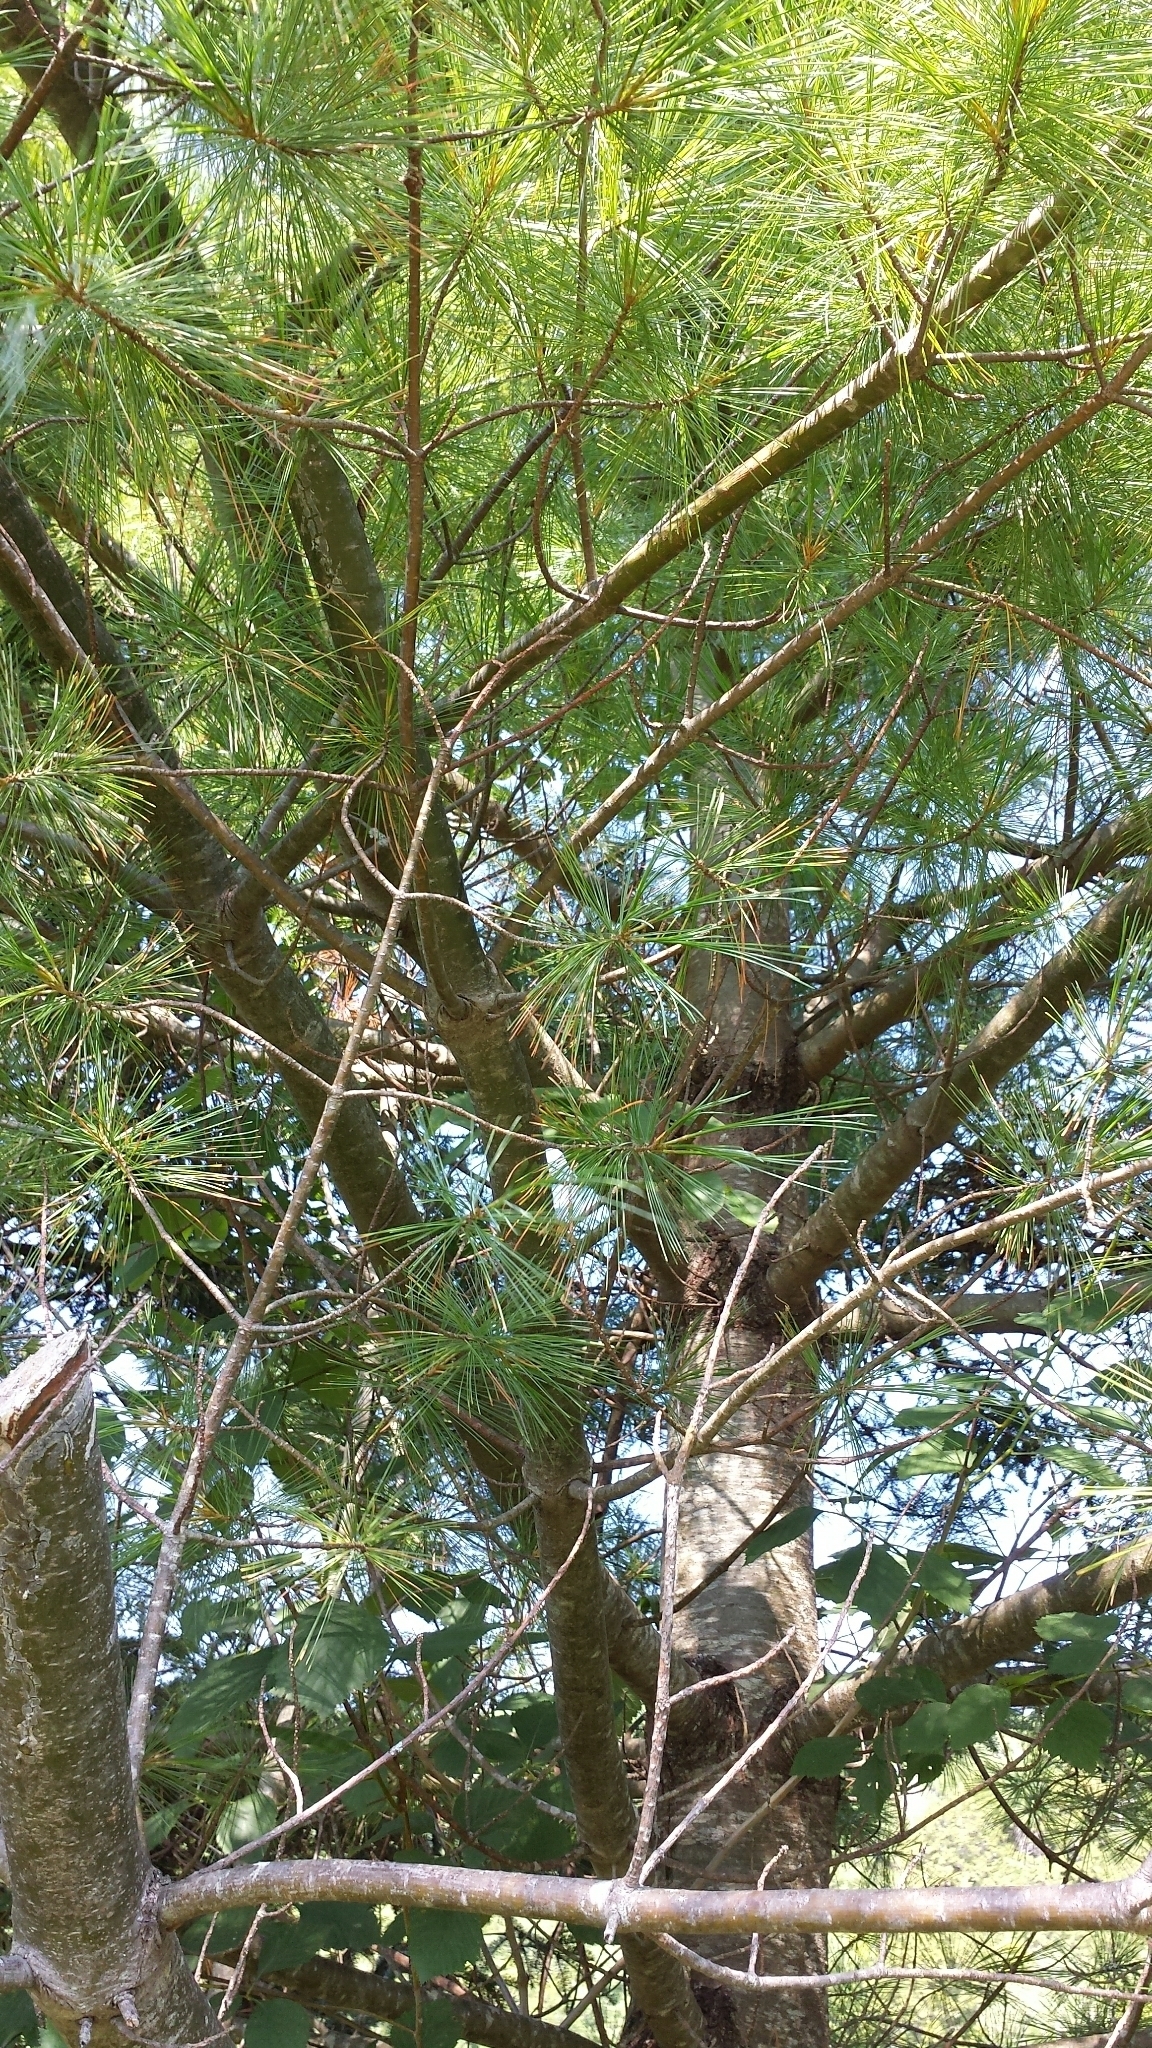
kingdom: Plantae
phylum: Tracheophyta
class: Pinopsida
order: Pinales
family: Pinaceae
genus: Pinus
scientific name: Pinus strobus
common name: Weymouth pine
